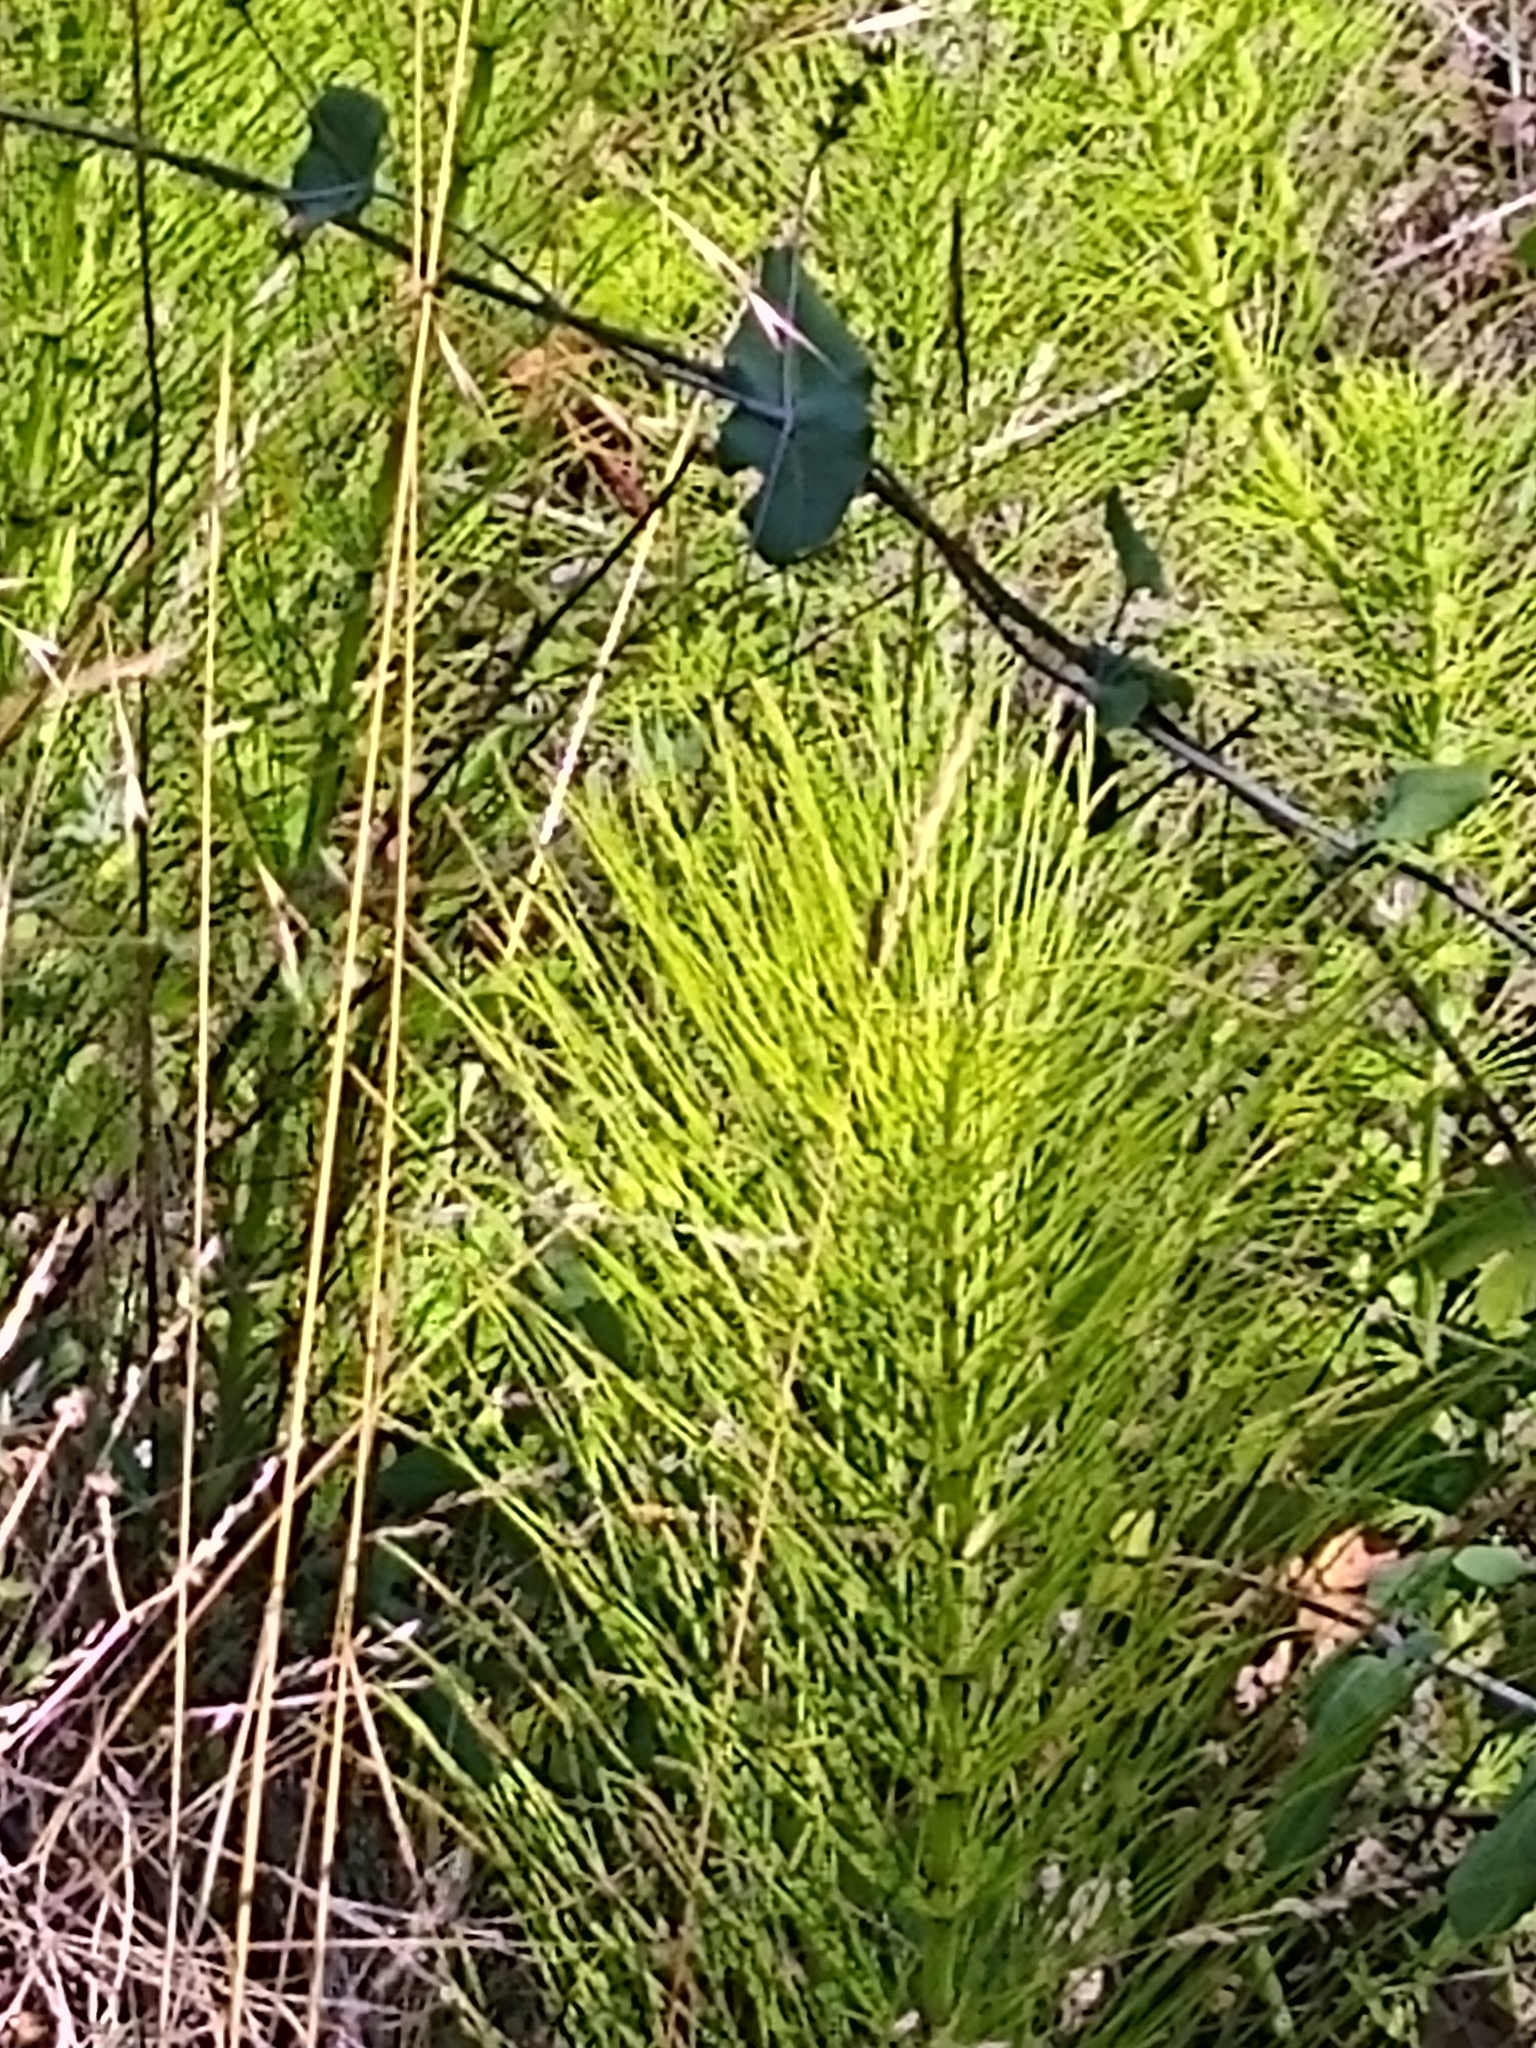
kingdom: Plantae
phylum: Tracheophyta
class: Polypodiopsida
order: Equisetales
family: Equisetaceae
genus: Equisetum
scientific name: Equisetum braunii
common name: Braun's horsetail
